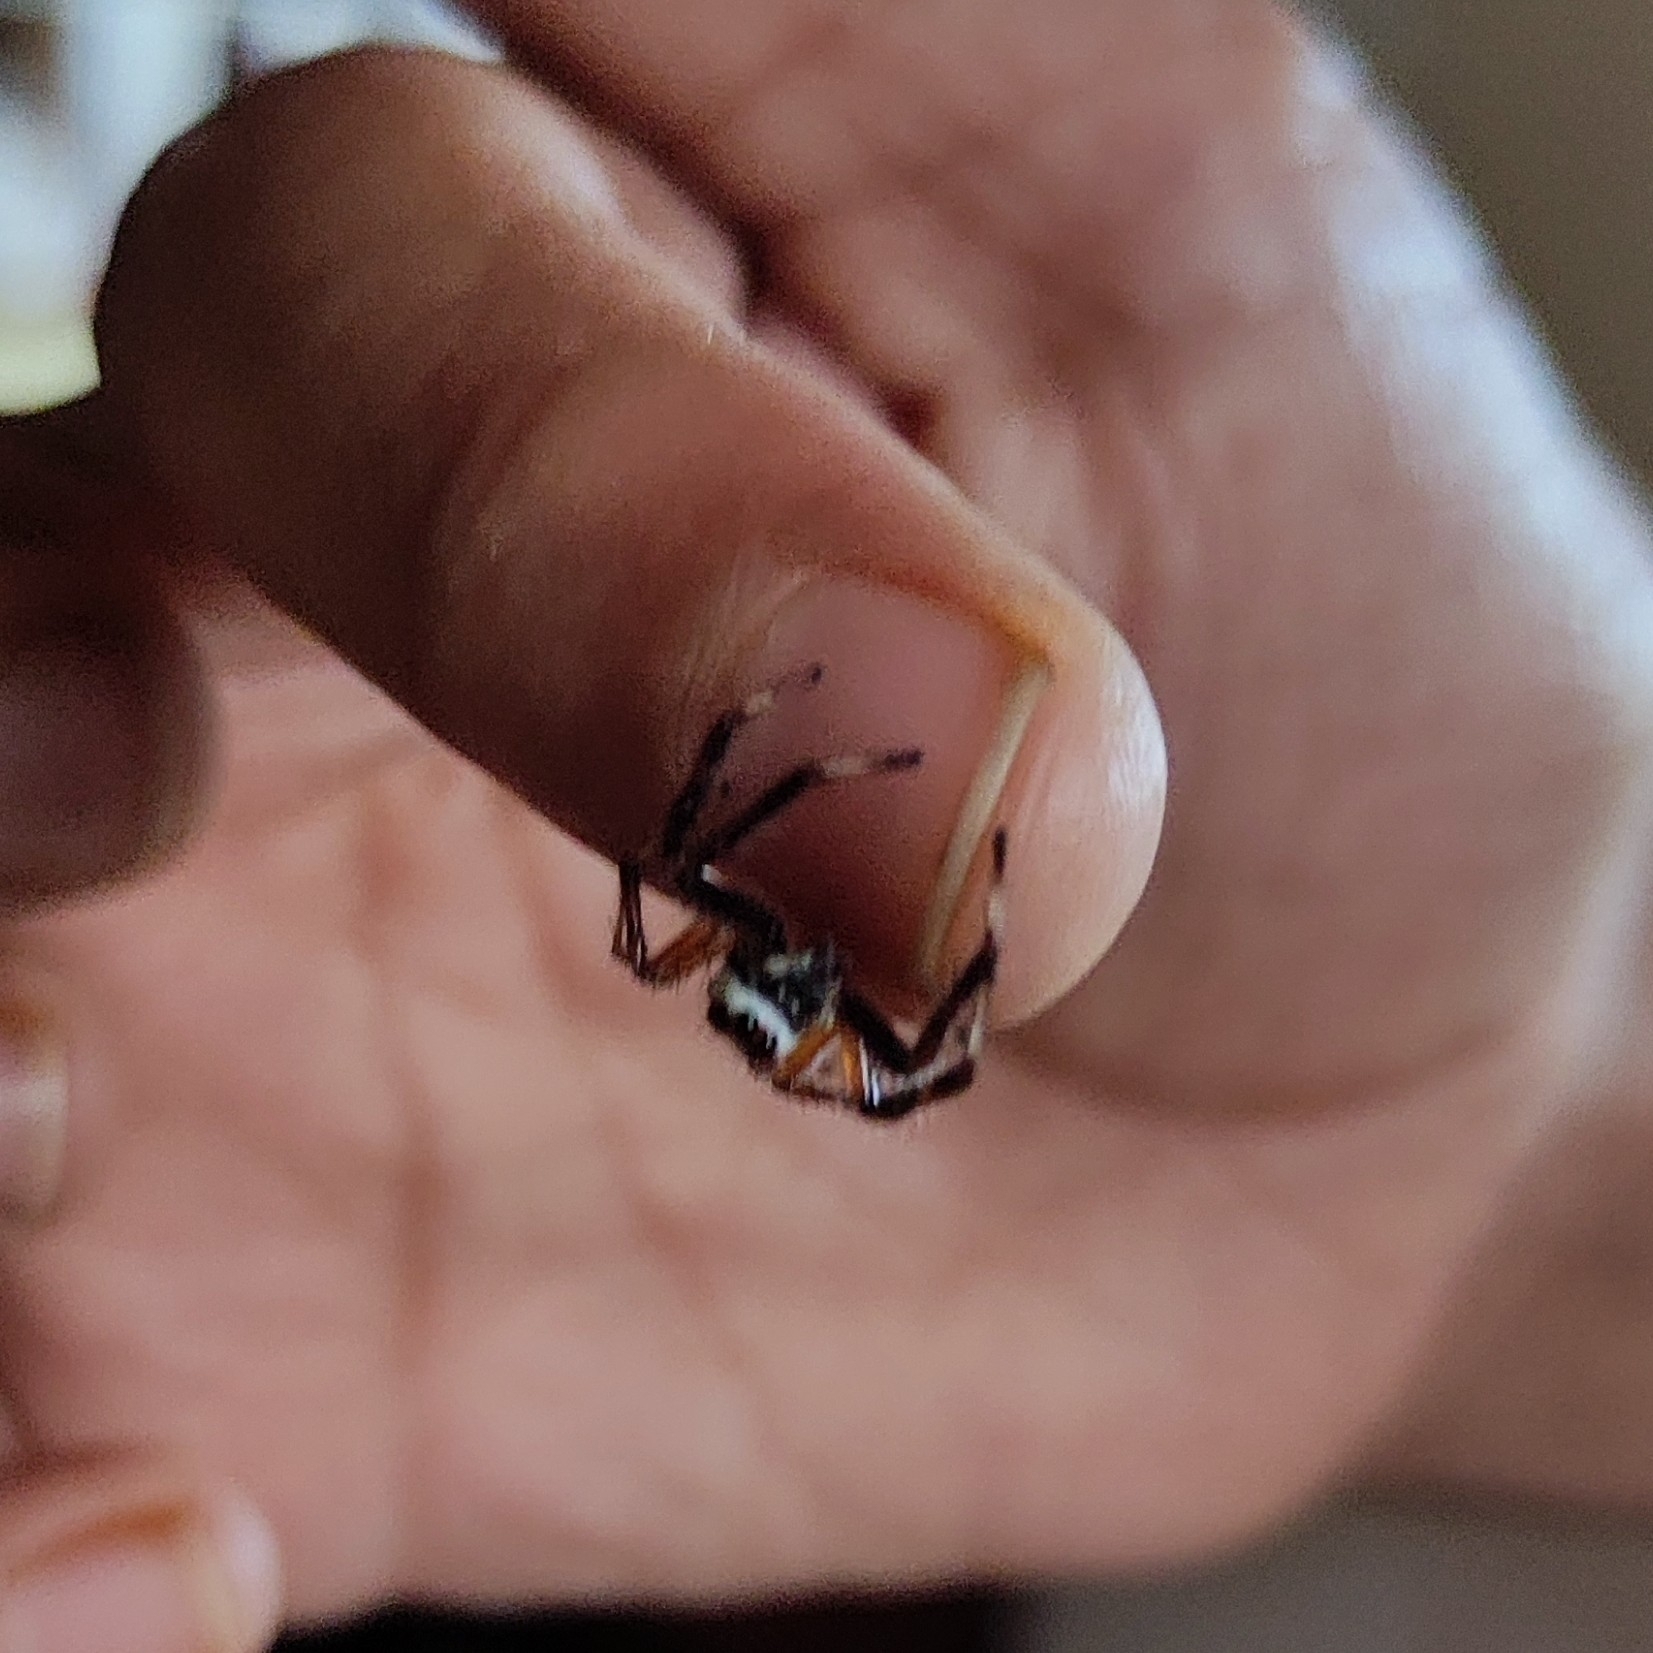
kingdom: Animalia
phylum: Arthropoda
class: Arachnida
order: Araneae
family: Salticidae
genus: Telamonia
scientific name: Telamonia dimidiata
